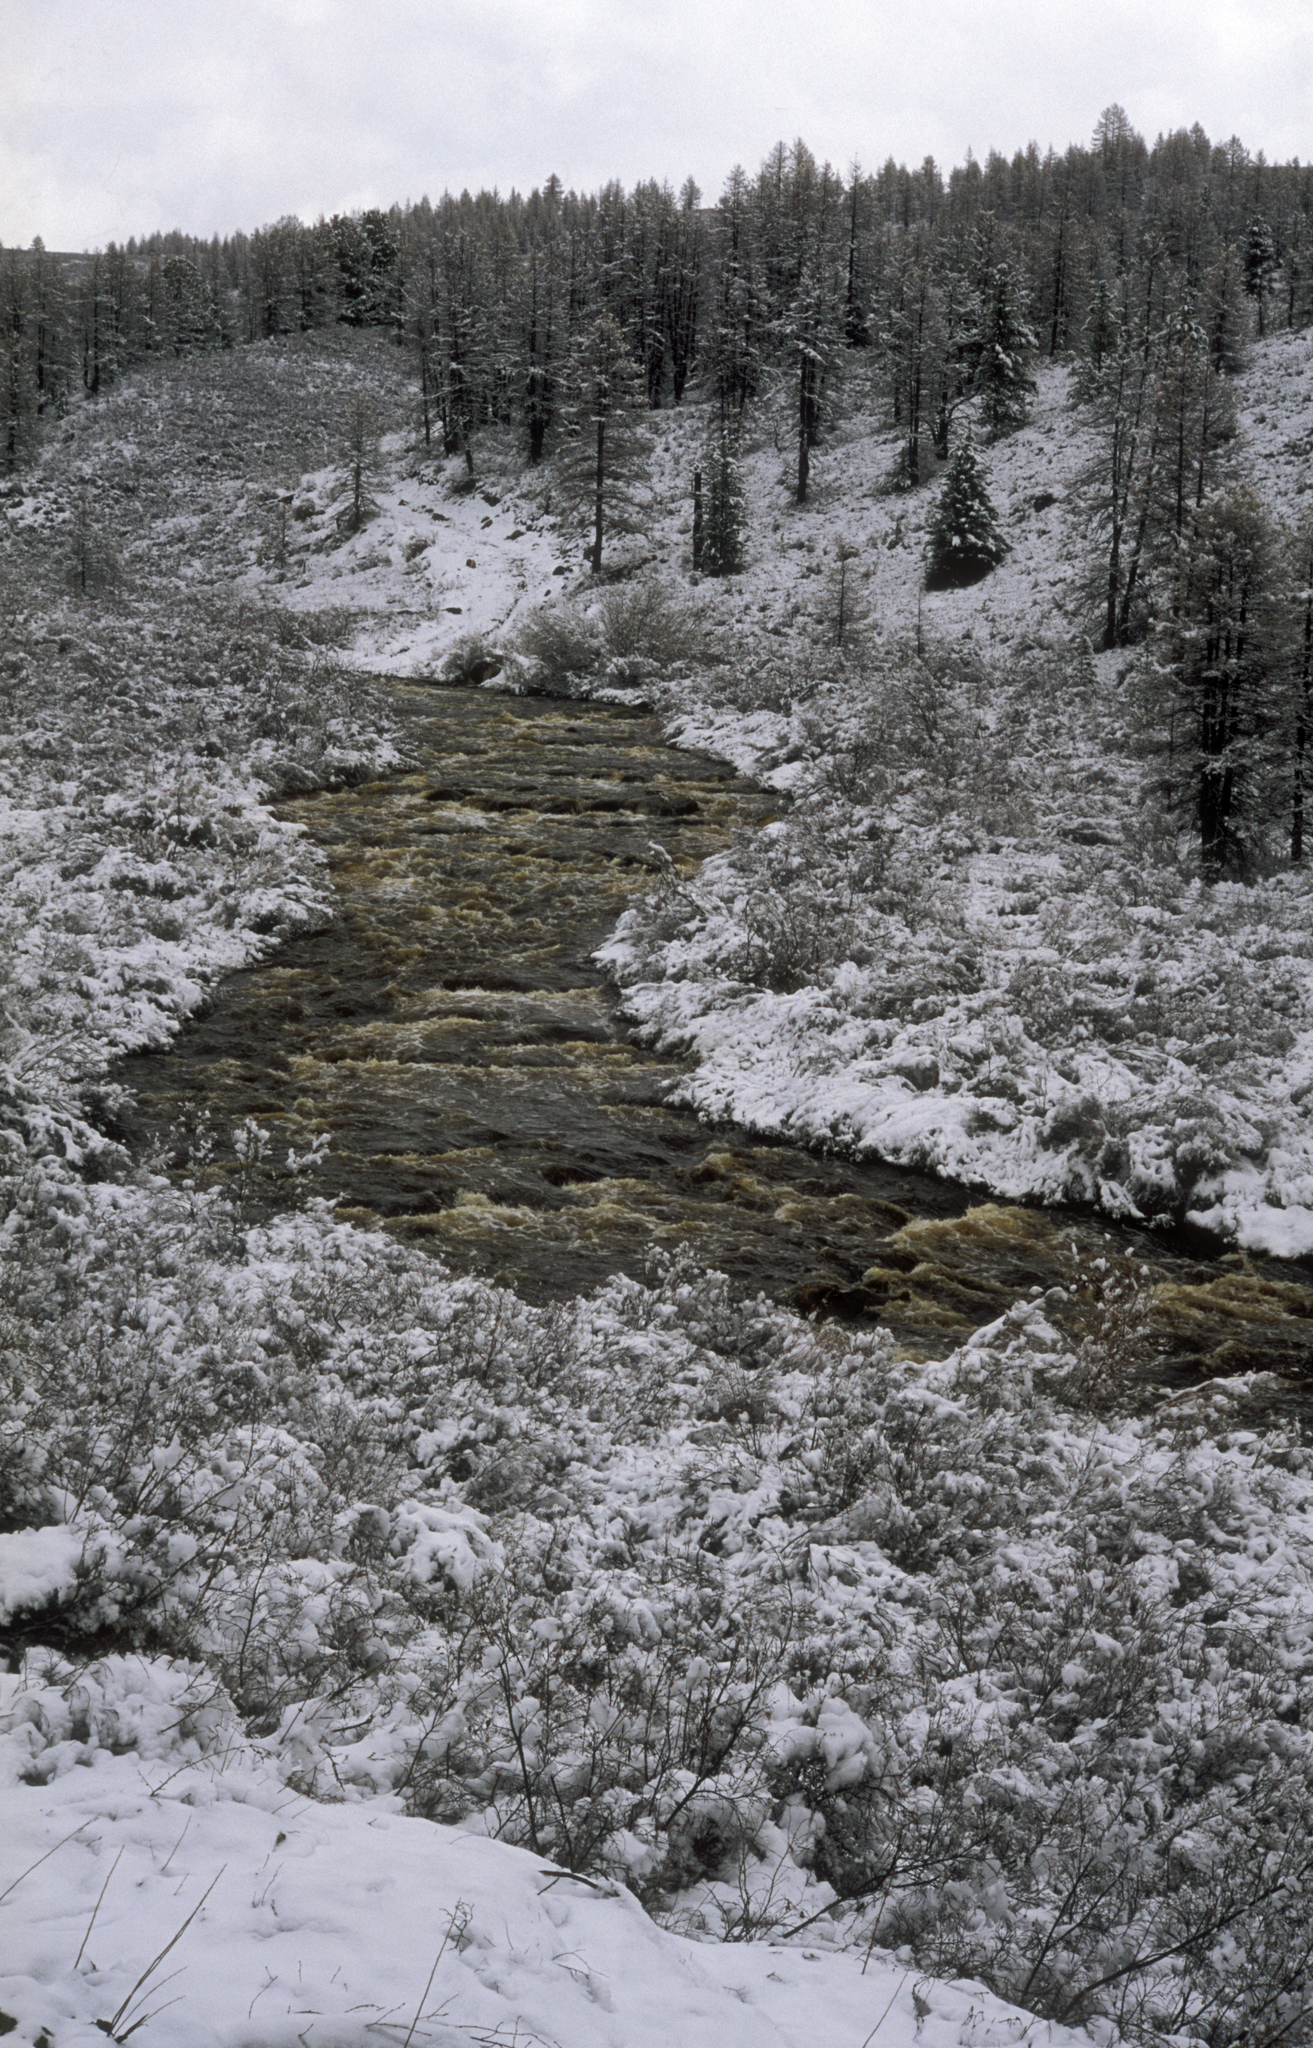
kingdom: Plantae
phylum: Tracheophyta
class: Pinopsida
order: Pinales
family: Pinaceae
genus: Picea
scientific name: Picea obovata
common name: Siberian spruce
